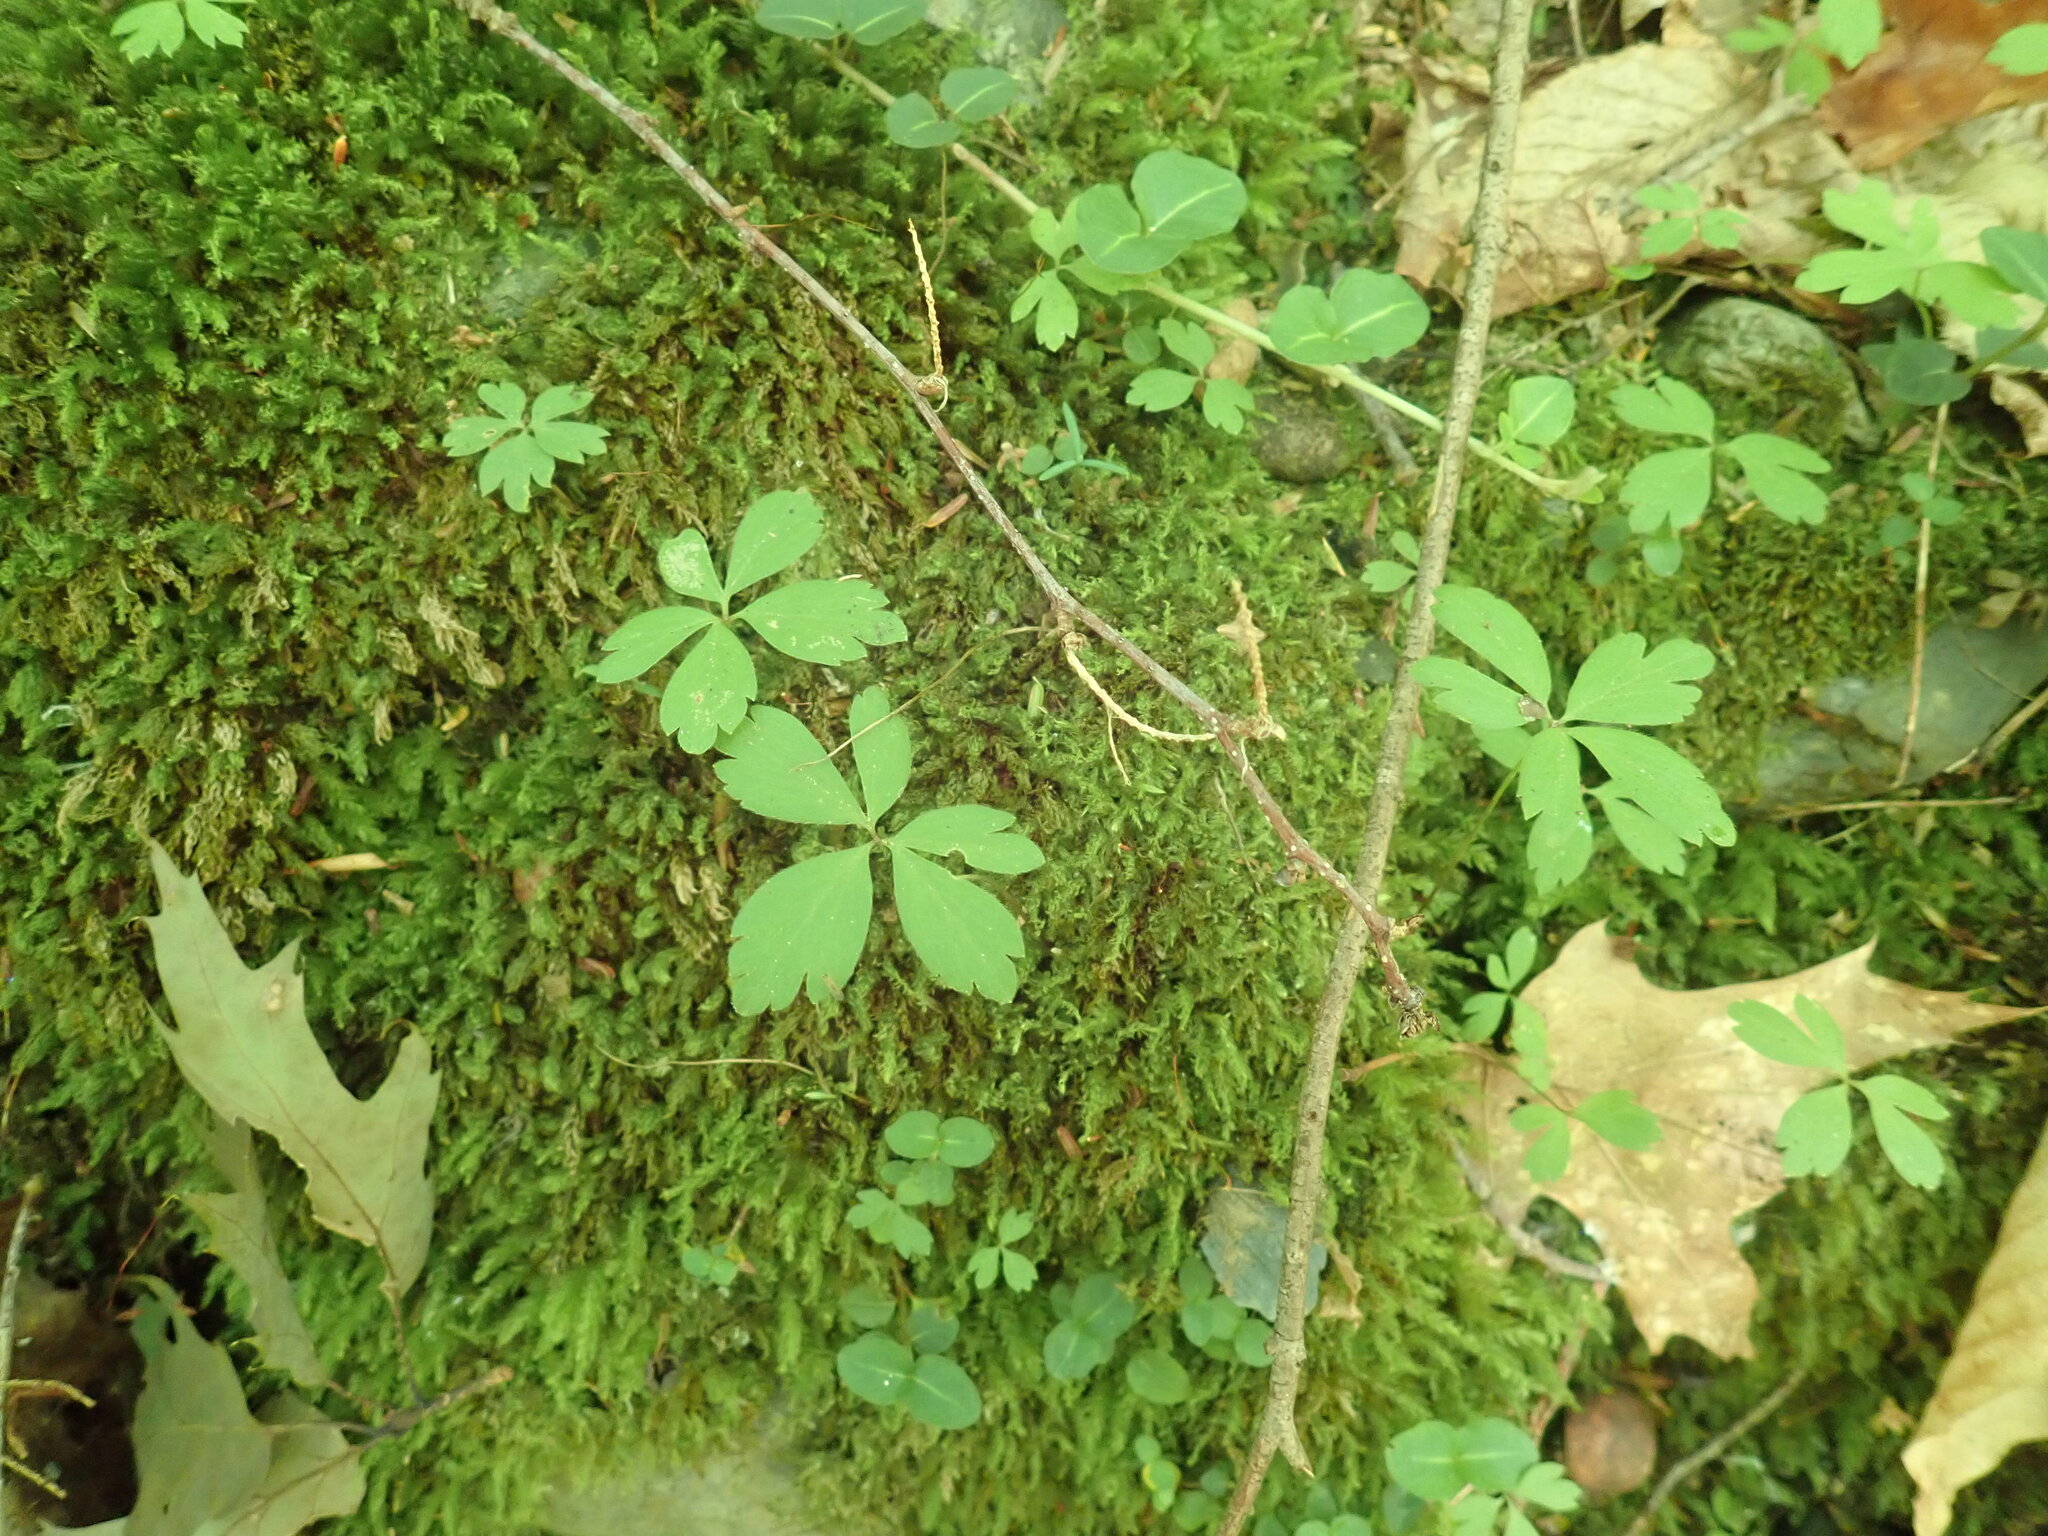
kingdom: Plantae
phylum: Tracheophyta
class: Magnoliopsida
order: Ranunculales
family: Ranunculaceae
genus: Anemone
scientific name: Anemone quinquefolia
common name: Wood anemone
